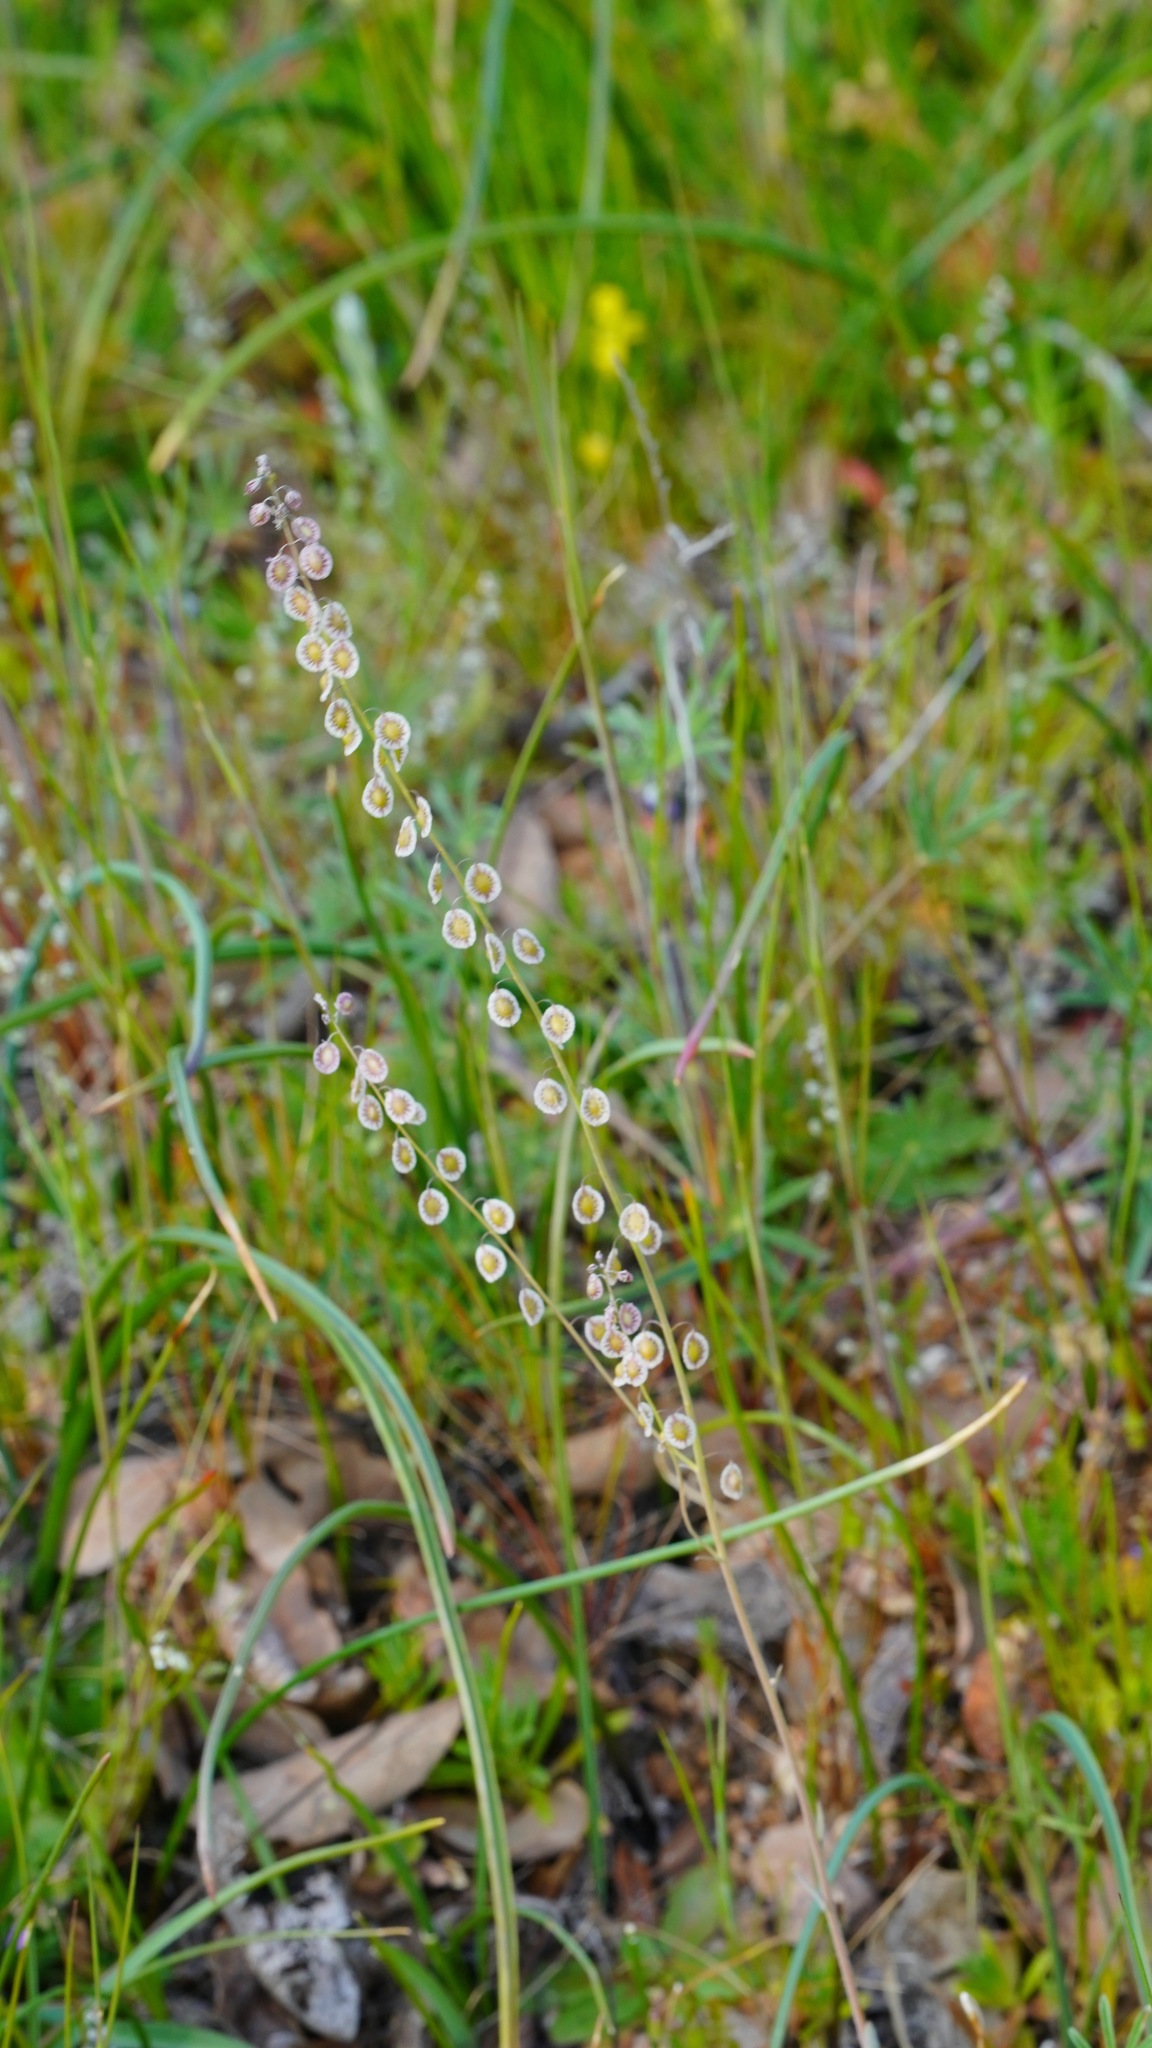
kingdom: Plantae
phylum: Tracheophyta
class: Magnoliopsida
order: Brassicales
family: Brassicaceae
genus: Thysanocarpus
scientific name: Thysanocarpus curvipes
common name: Sand fringepod
